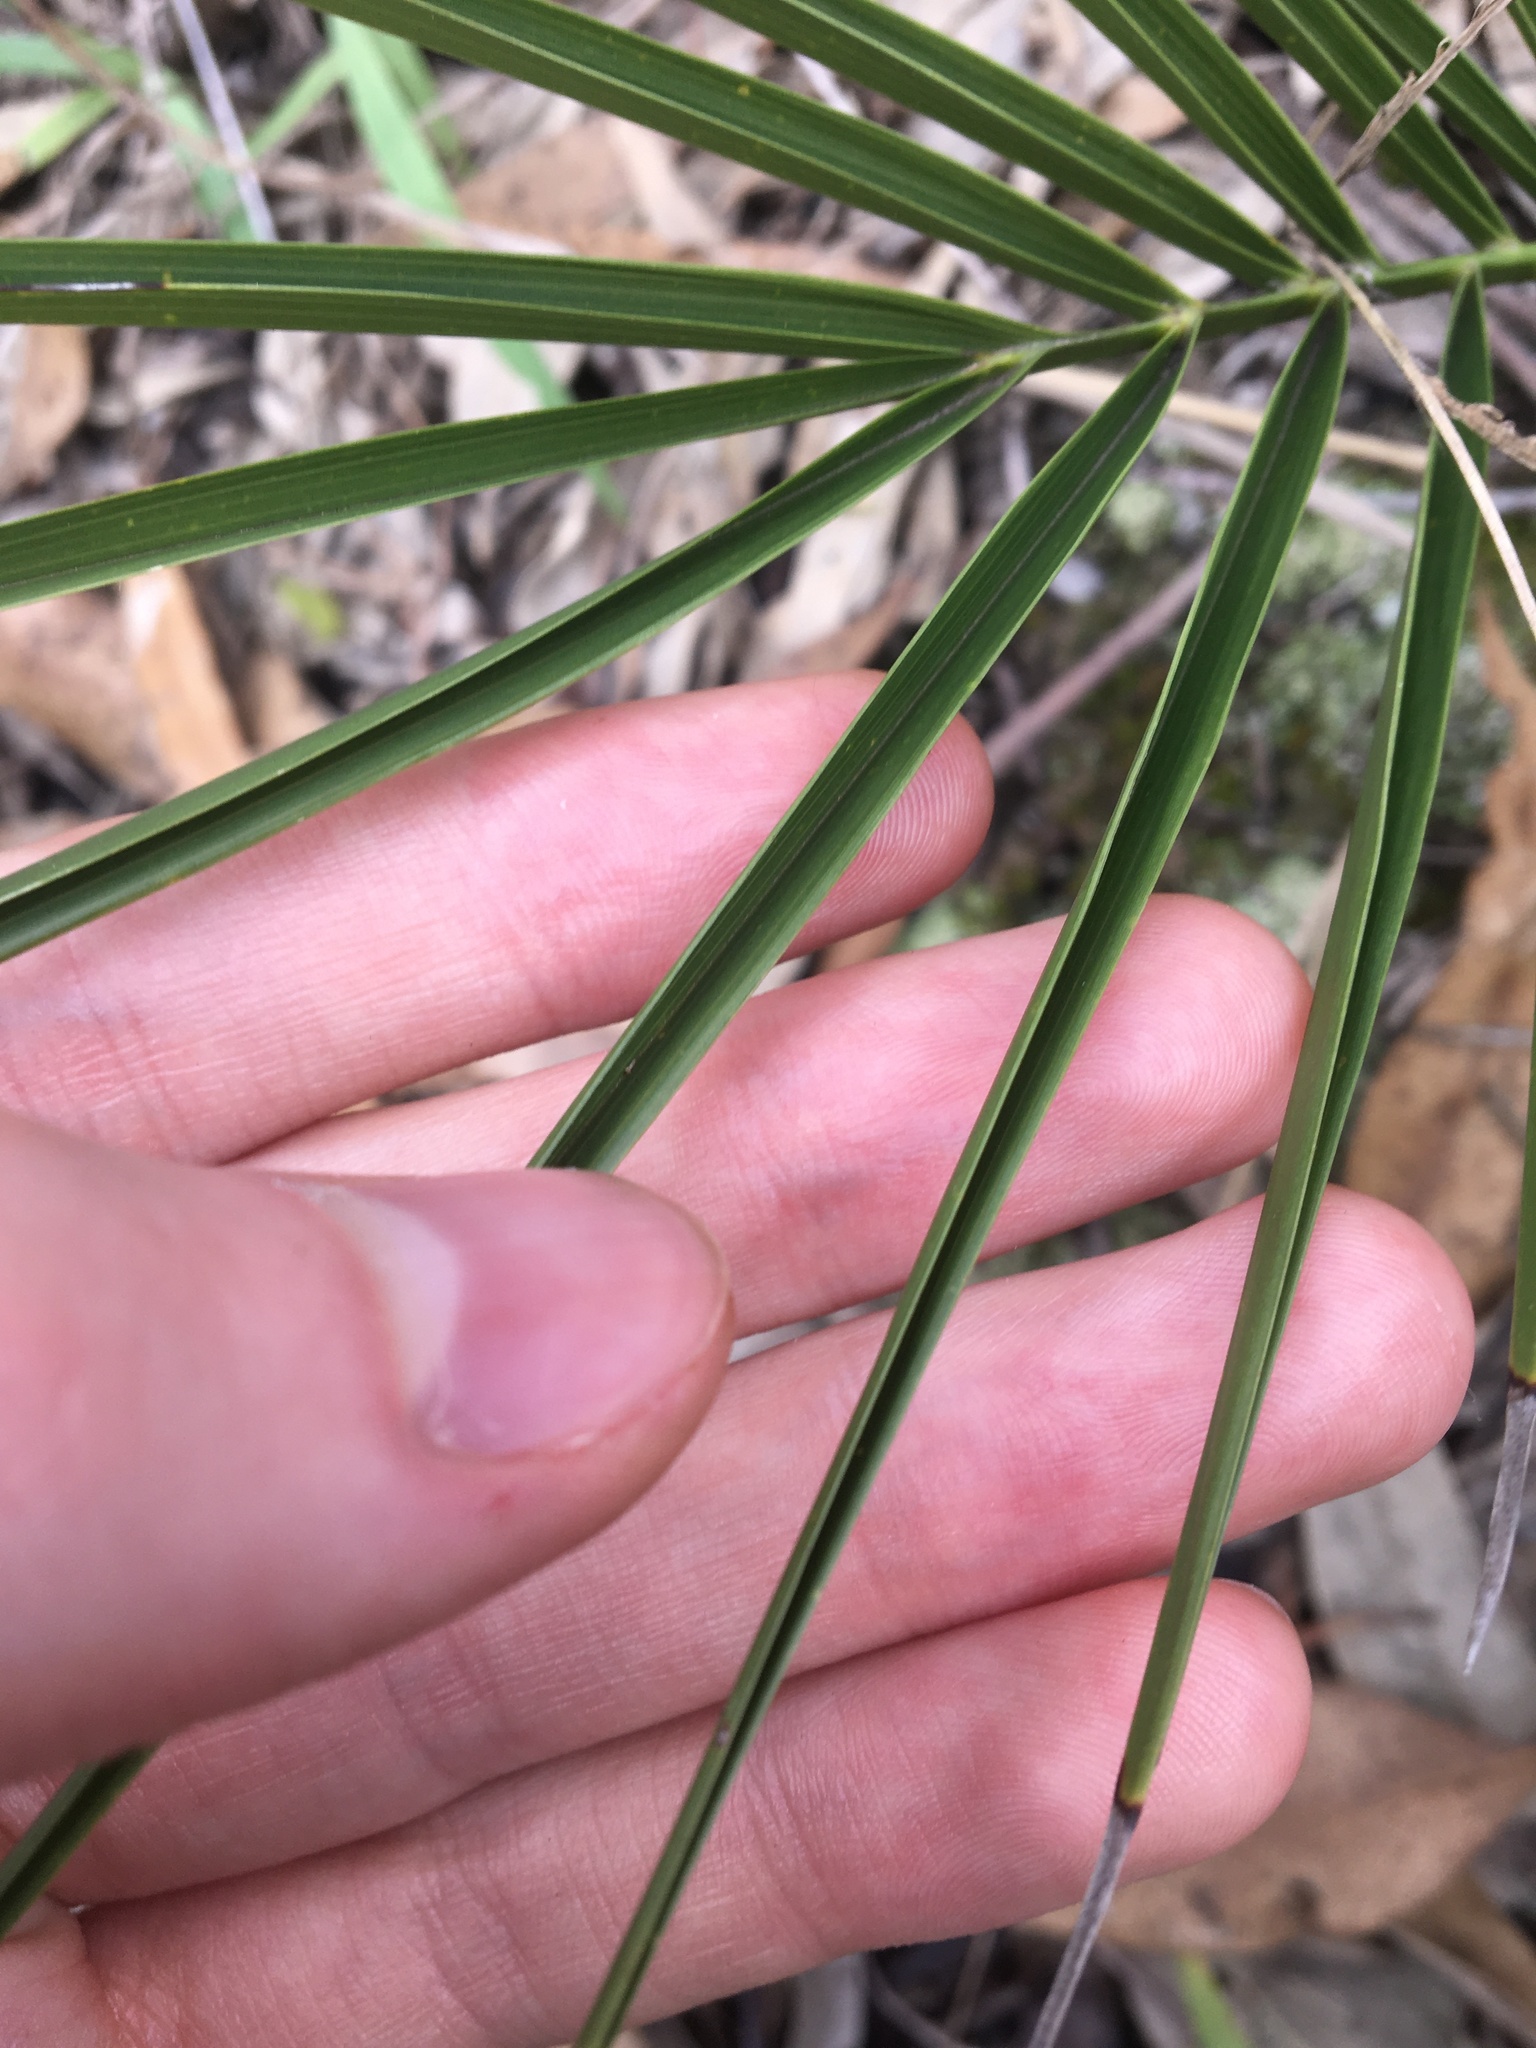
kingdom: Plantae
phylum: Tracheophyta
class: Liliopsida
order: Arecales
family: Arecaceae
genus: Phoenix
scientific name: Phoenix canariensis
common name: Canary island date palm
